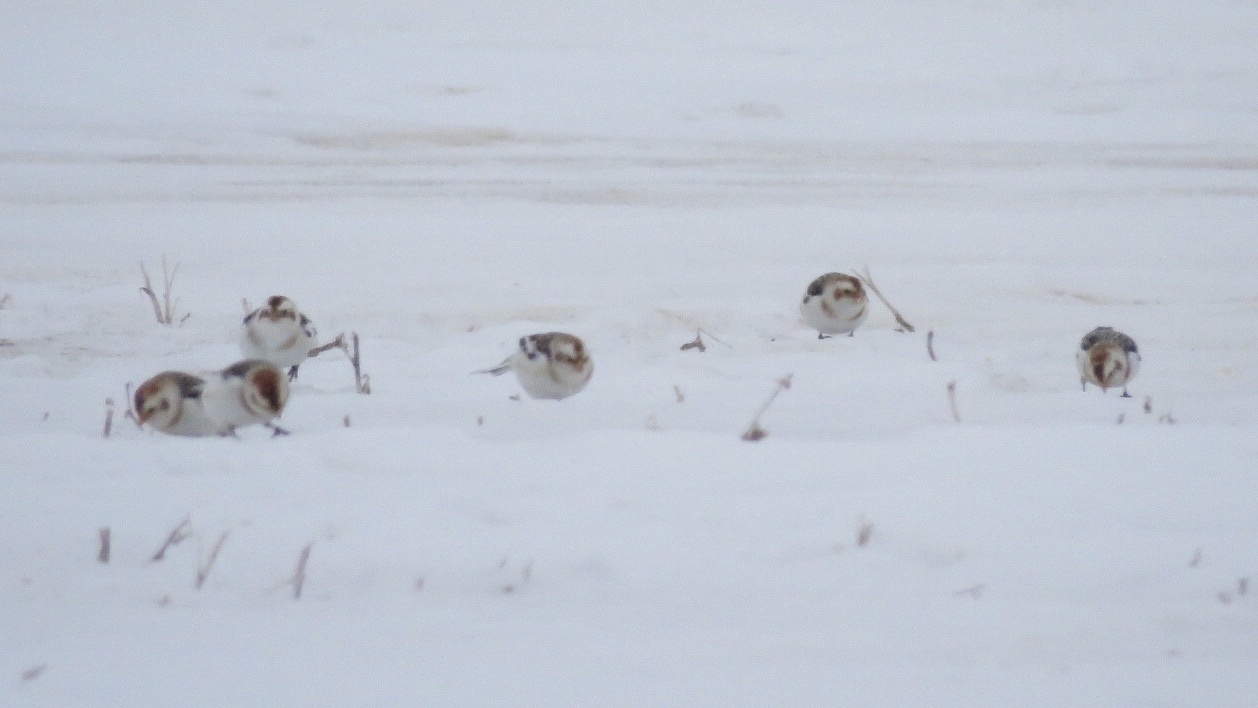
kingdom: Animalia
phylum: Chordata
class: Aves
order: Passeriformes
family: Calcariidae
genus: Plectrophenax
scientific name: Plectrophenax nivalis
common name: Snow bunting
